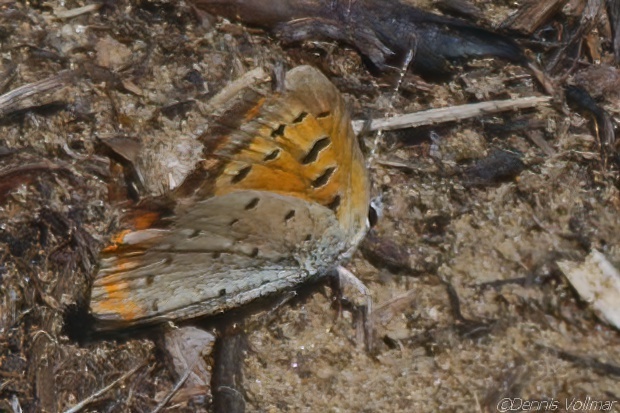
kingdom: Animalia
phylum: Arthropoda
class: Insecta
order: Lepidoptera
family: Lycaenidae
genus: Lycaena
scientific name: Lycaena hypophlaeas
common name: American copper
